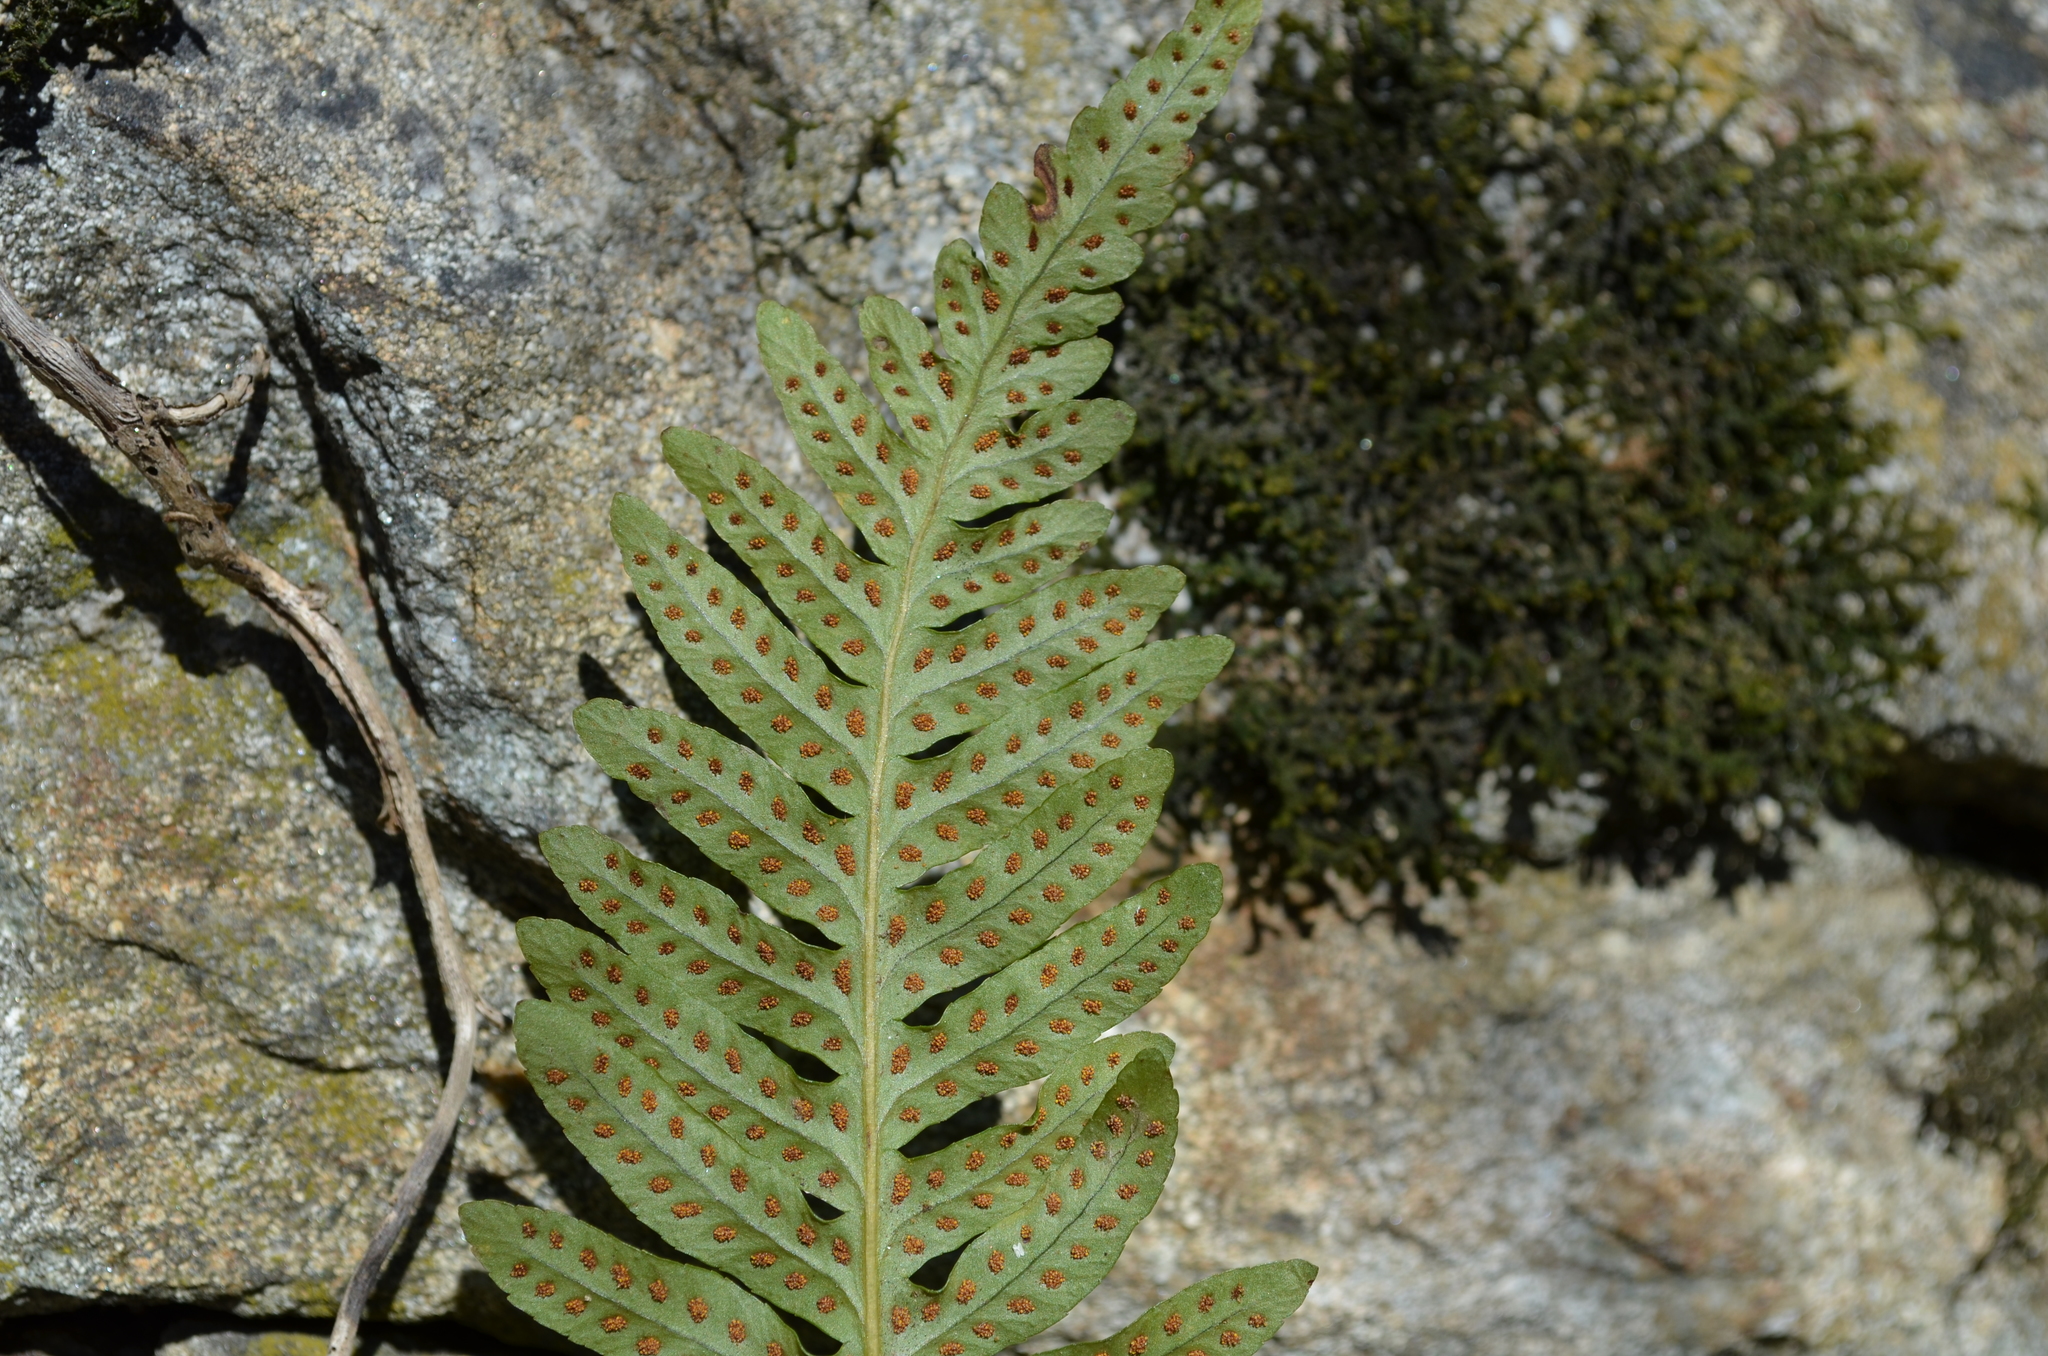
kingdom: Plantae
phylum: Tracheophyta
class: Polypodiopsida
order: Polypodiales
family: Polypodiaceae
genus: Polypodium
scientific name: Polypodium interjectum
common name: Intermediate polypody
